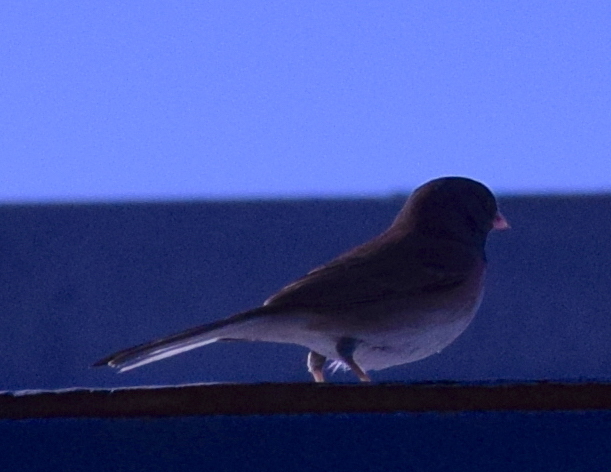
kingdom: Animalia
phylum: Chordata
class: Aves
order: Passeriformes
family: Passerellidae
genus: Junco
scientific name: Junco hyemalis
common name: Dark-eyed junco
